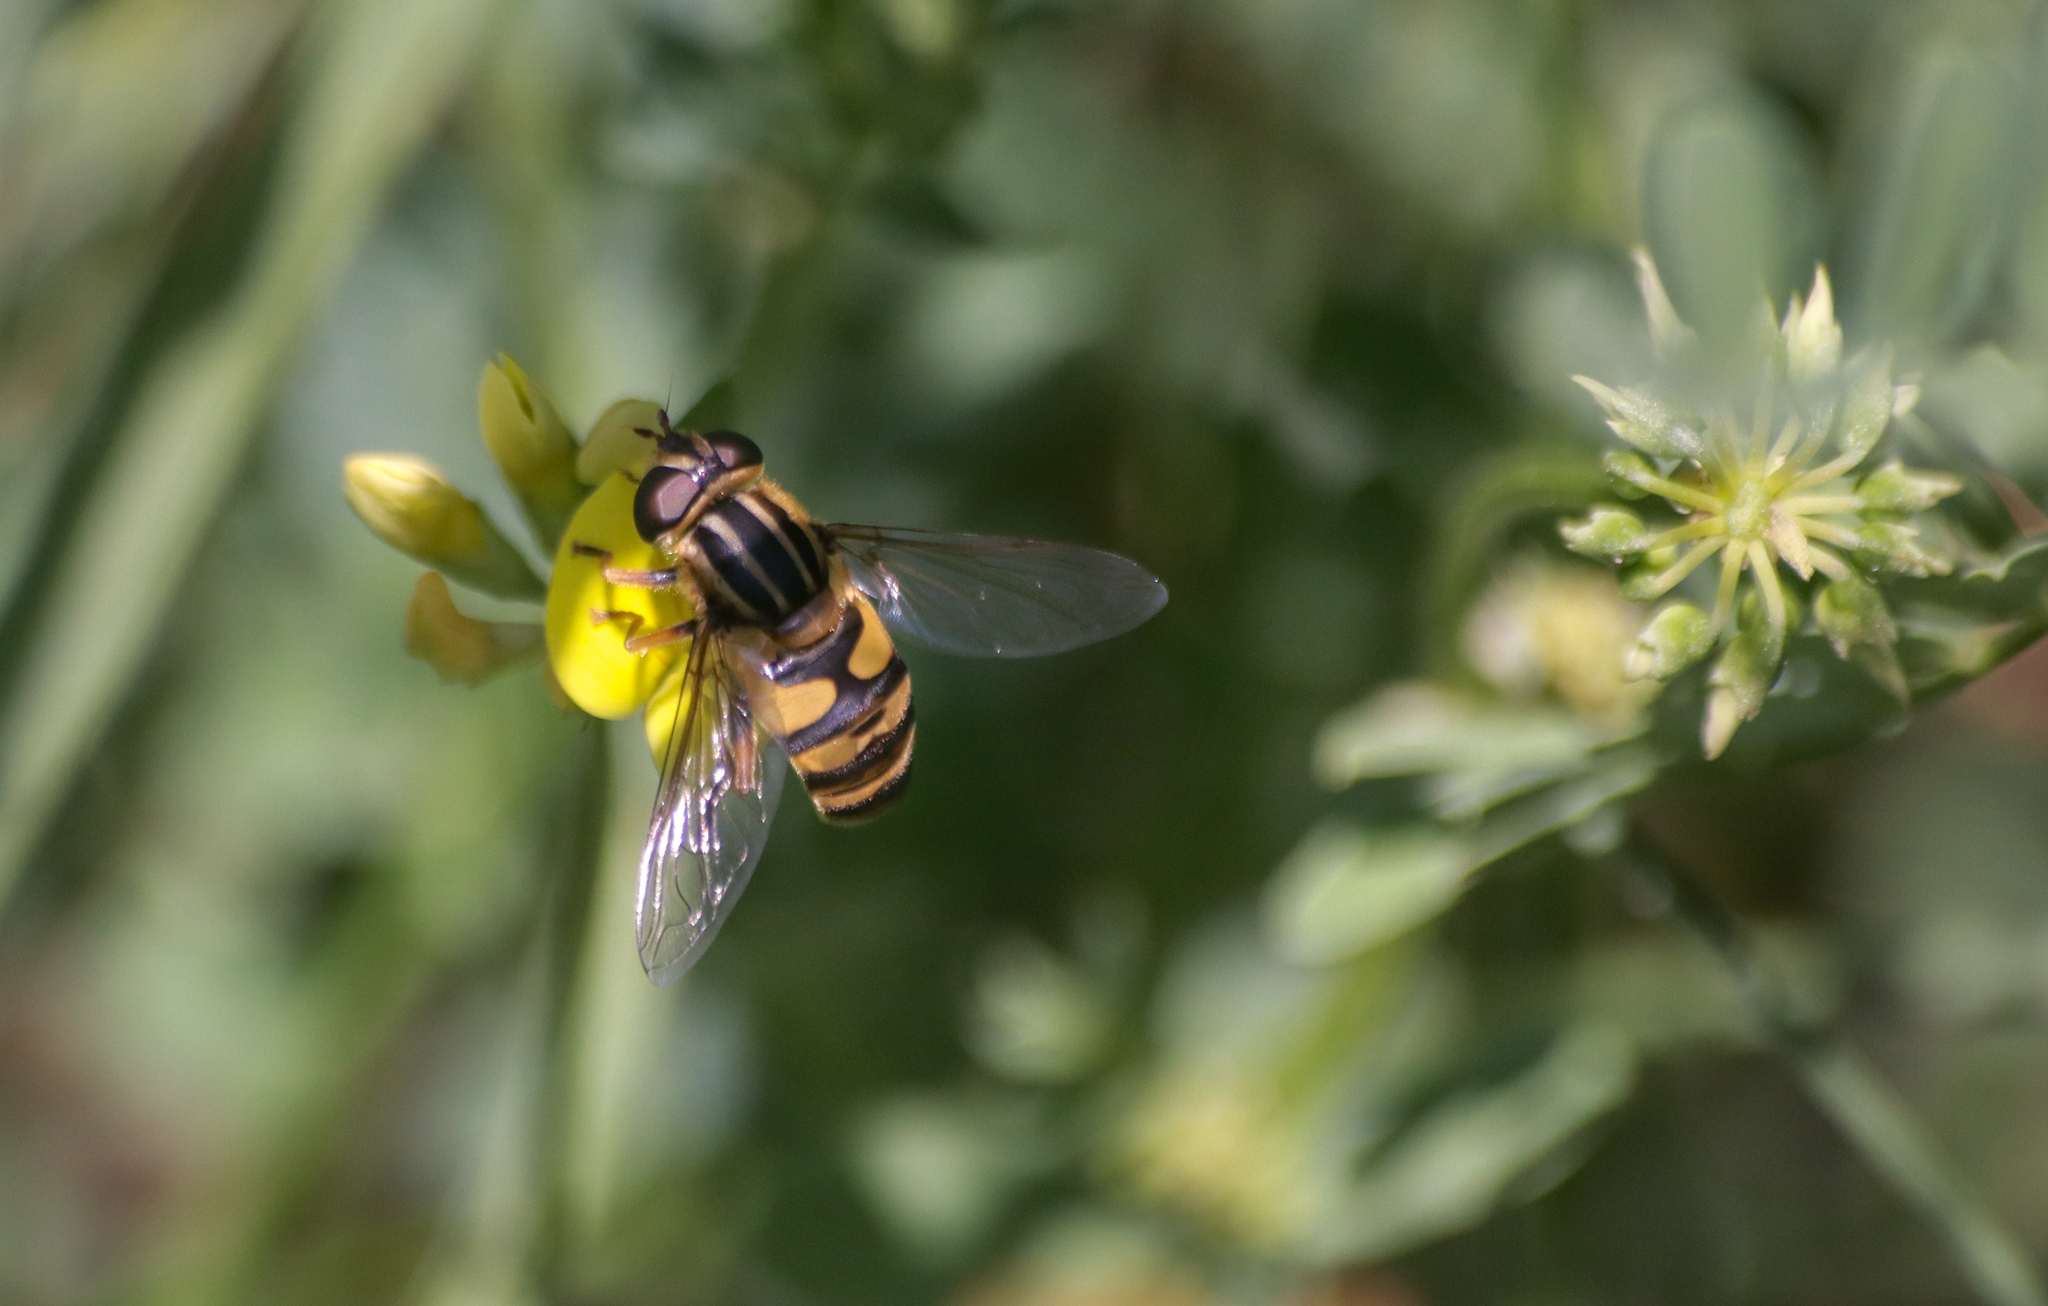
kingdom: Animalia
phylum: Arthropoda
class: Insecta
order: Diptera
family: Syrphidae
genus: Helophilus
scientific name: Helophilus fasciatus
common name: Narrow-headed marsh fly
